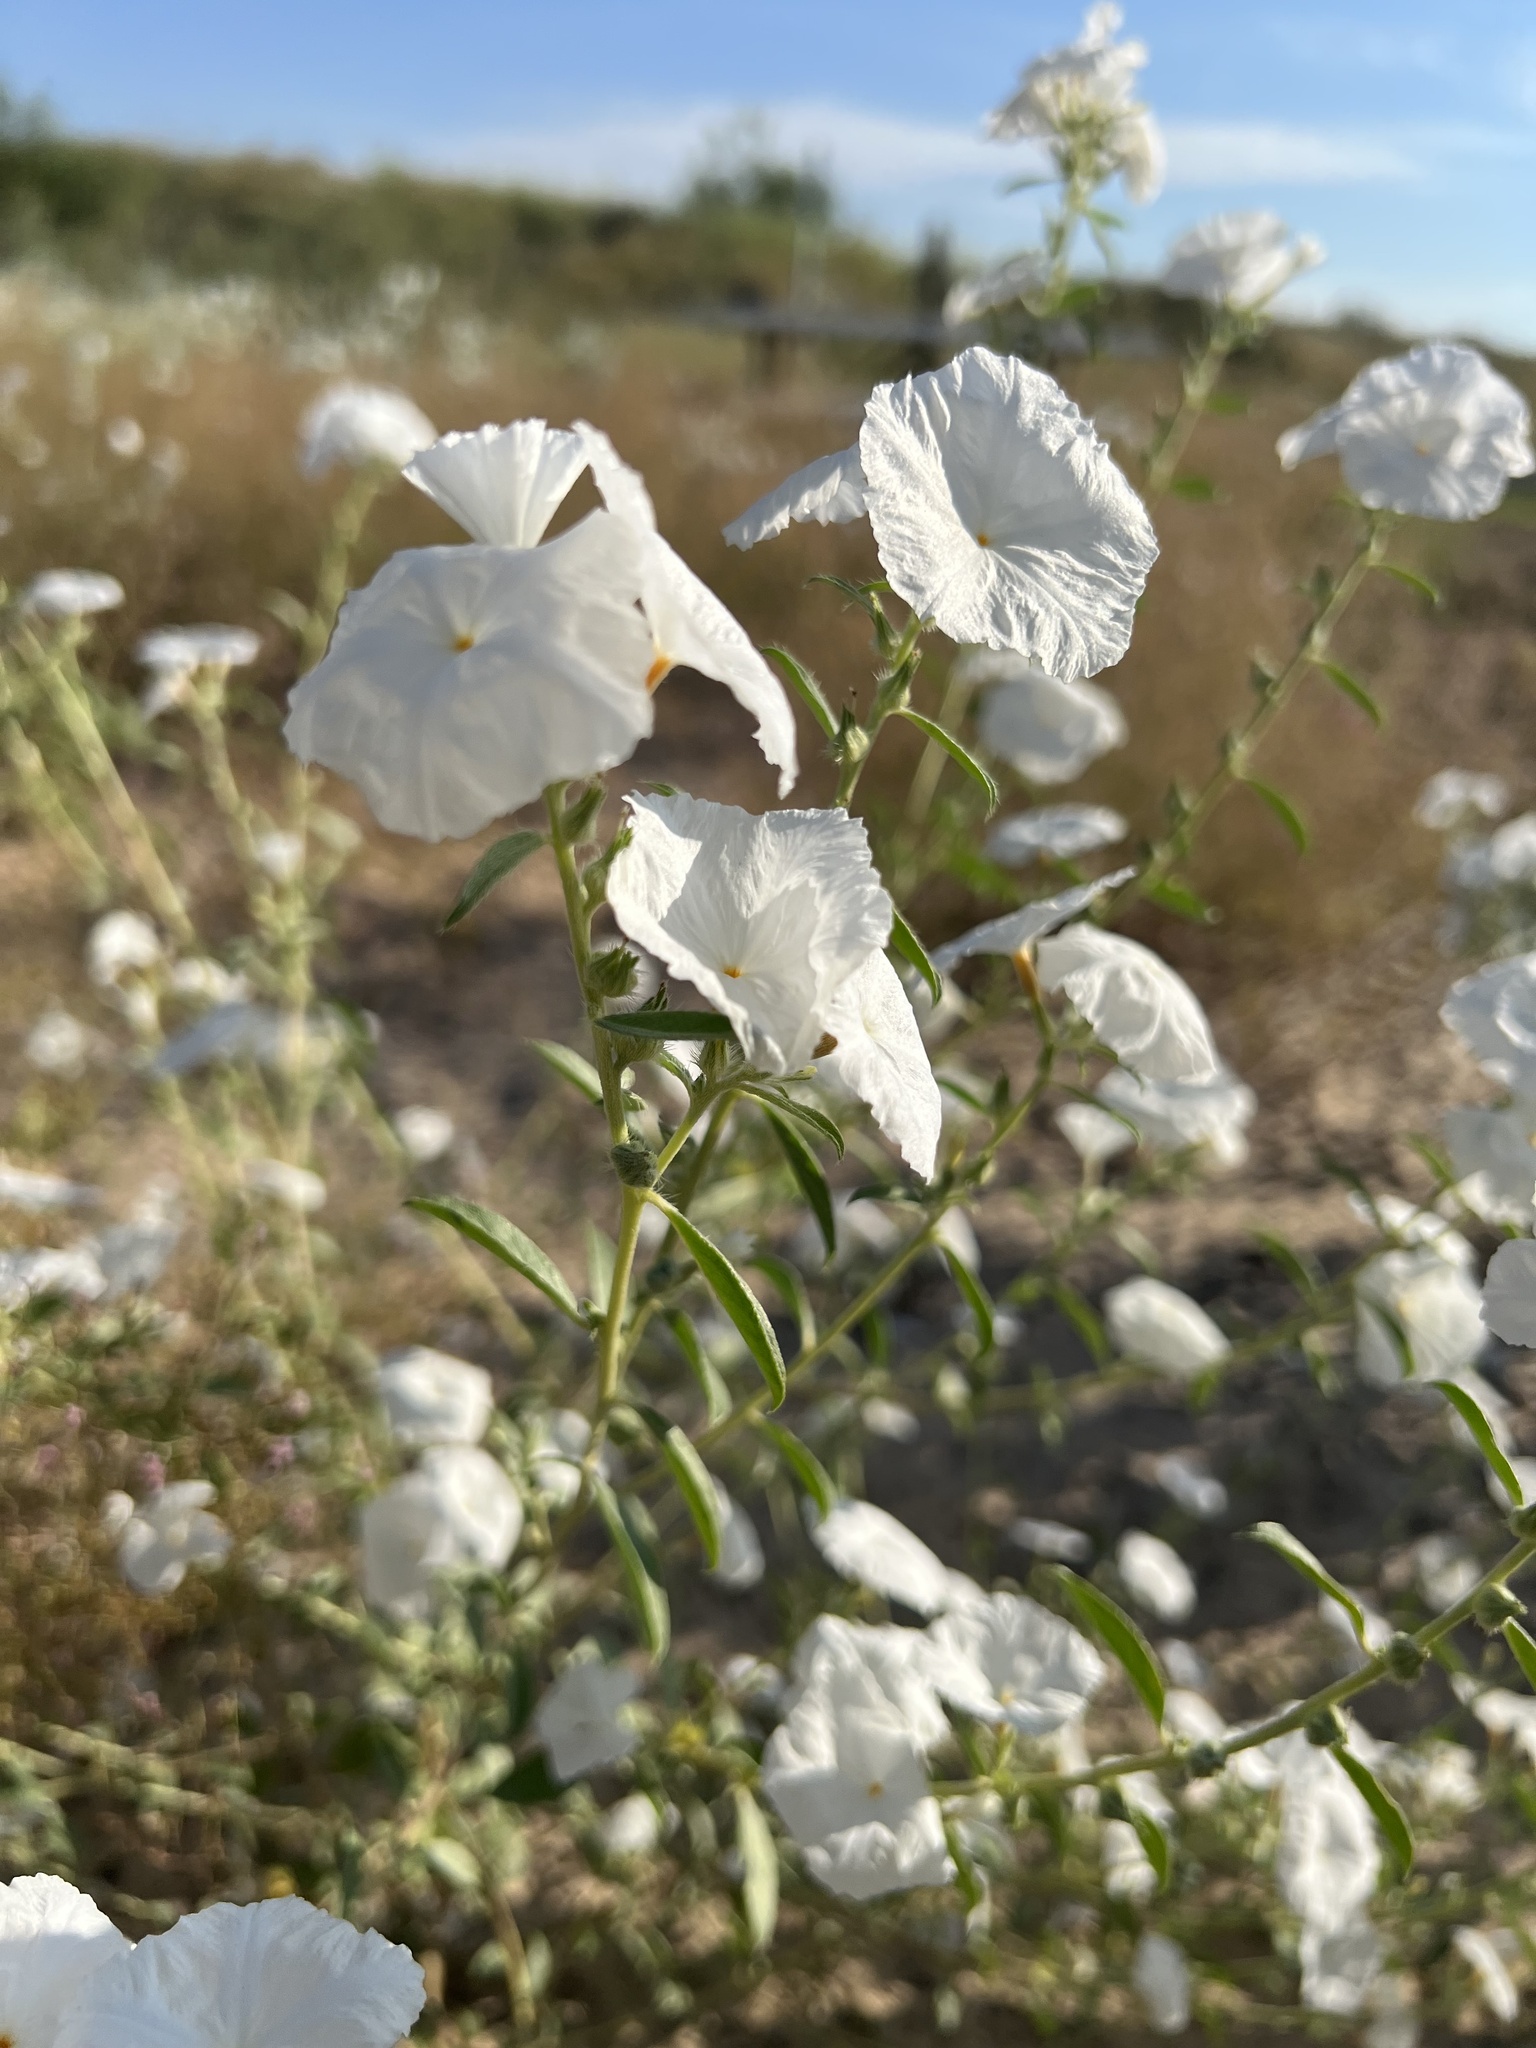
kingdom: Plantae
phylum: Tracheophyta
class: Magnoliopsida
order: Boraginales
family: Heliotropiaceae
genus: Euploca
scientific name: Euploca convolvulacea
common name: Bindweed heliotrope
